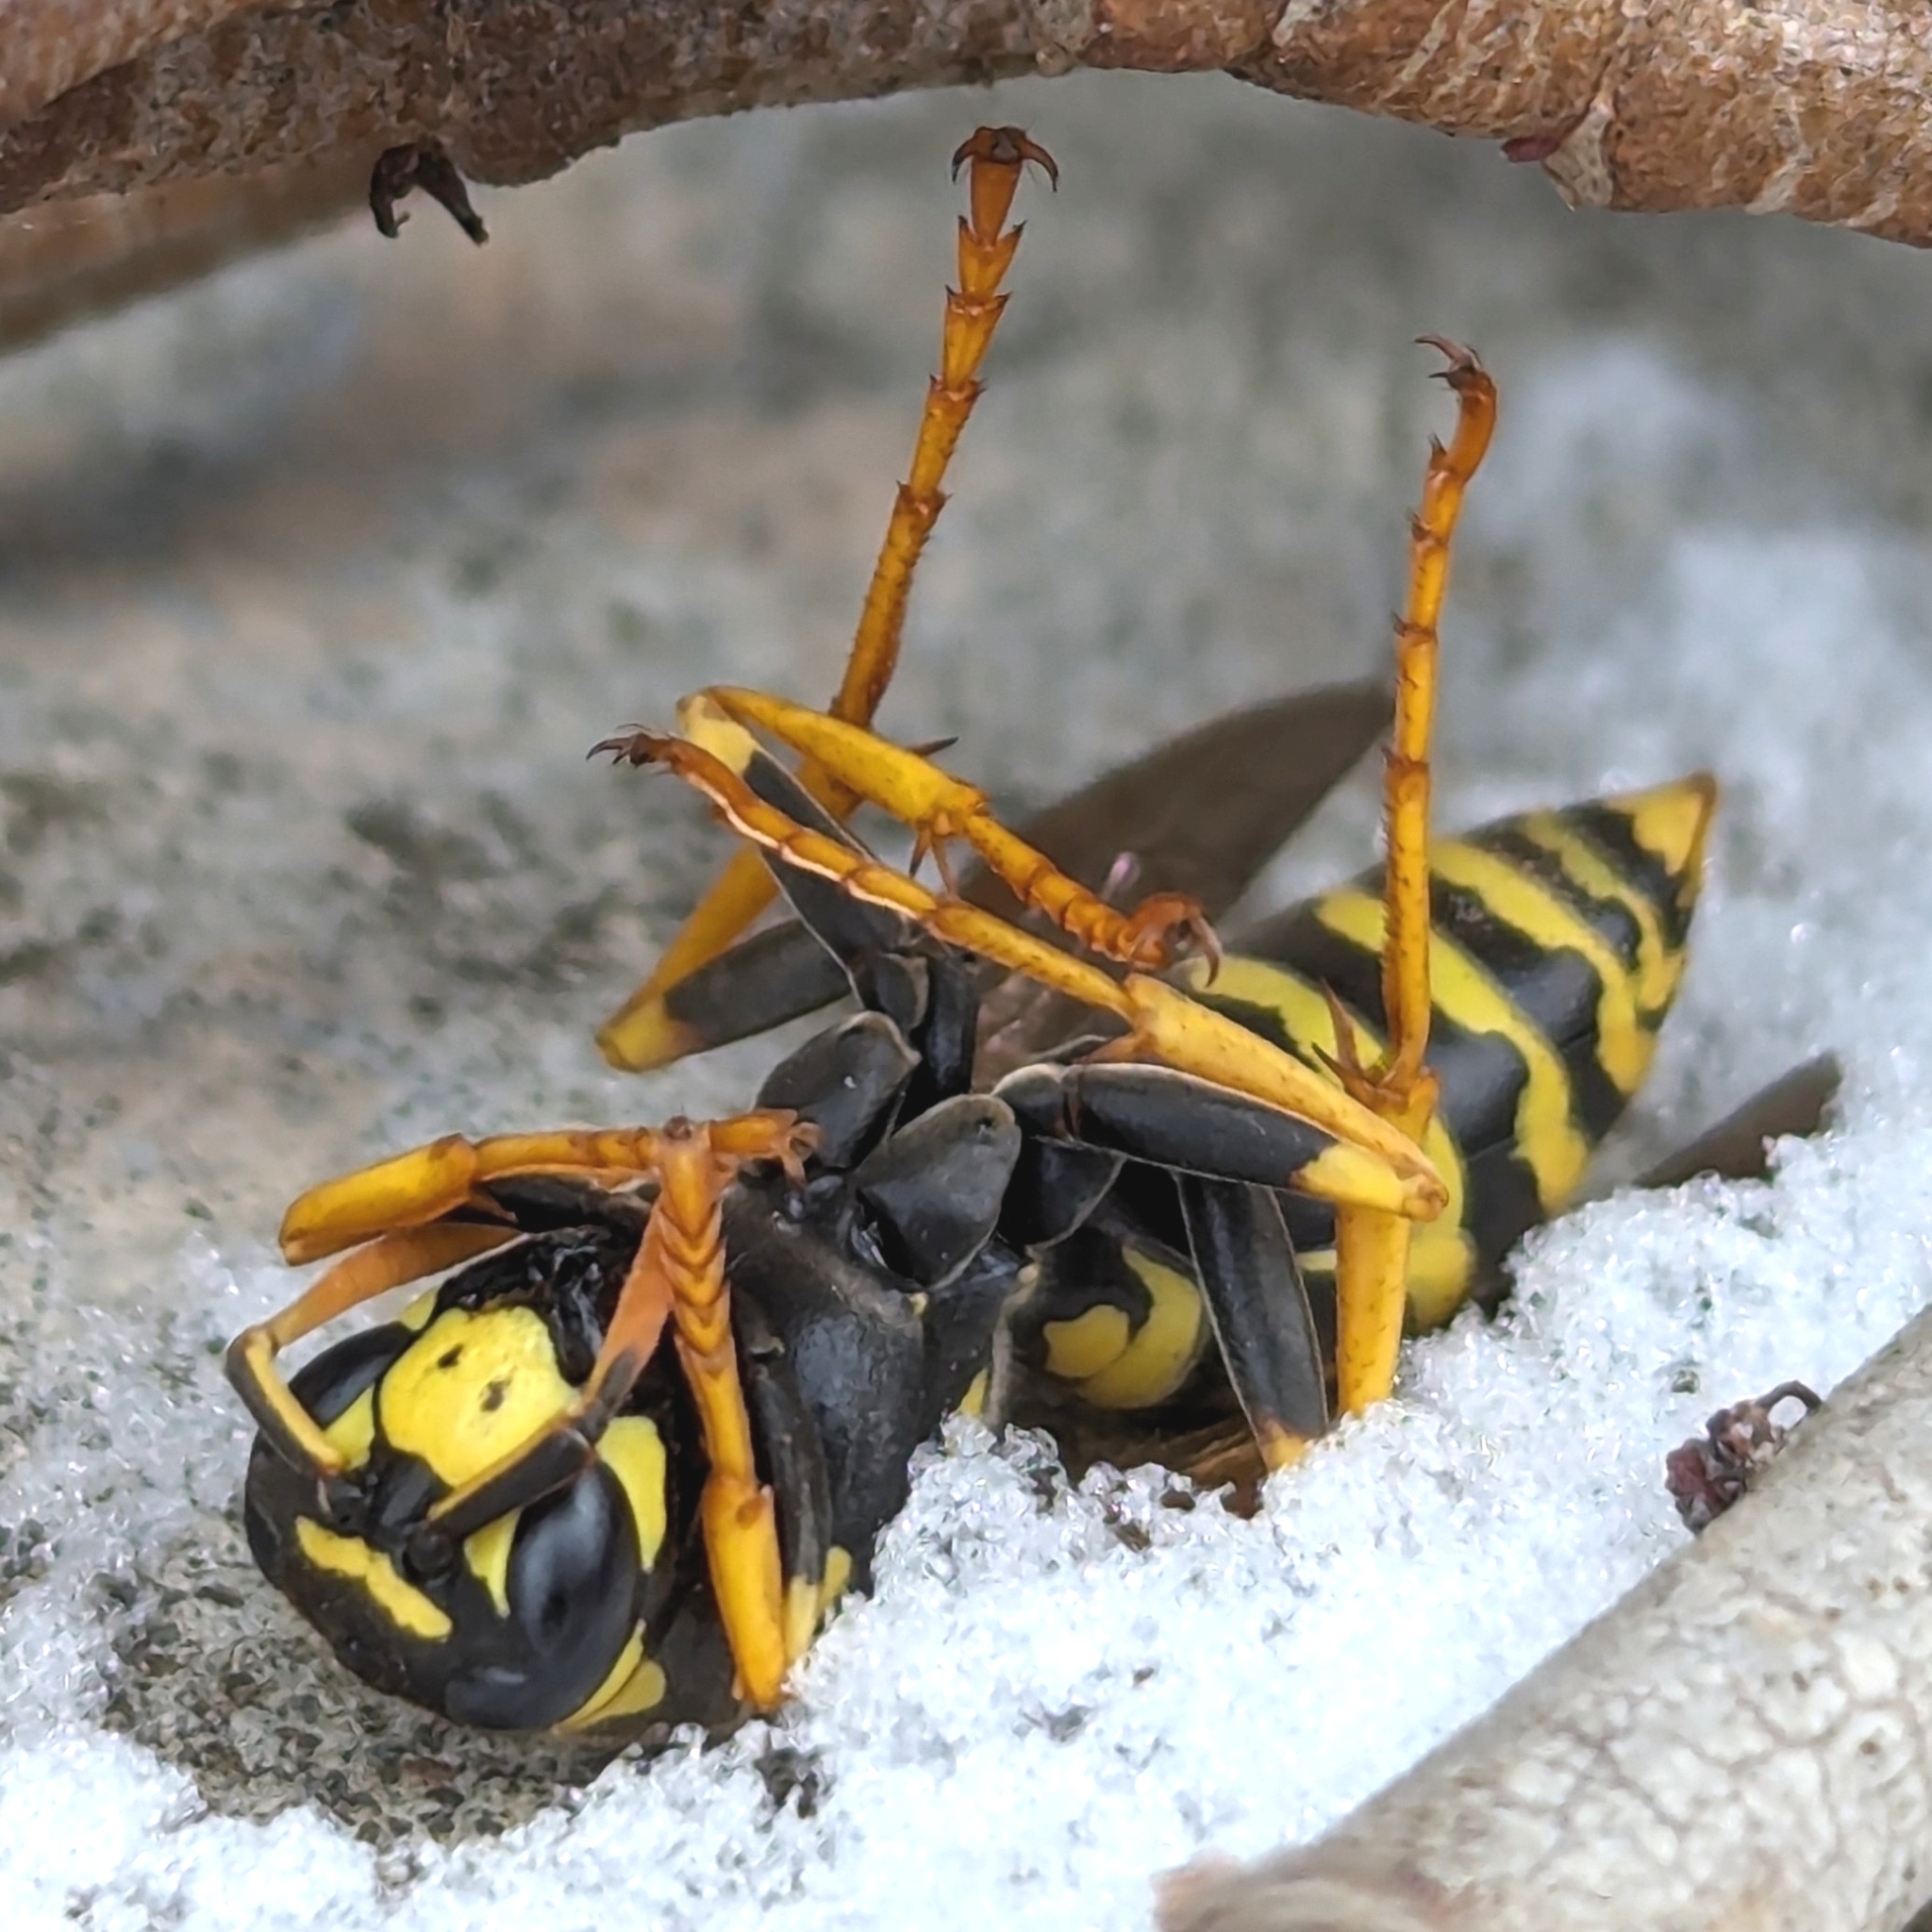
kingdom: Animalia
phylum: Arthropoda
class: Insecta
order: Hymenoptera
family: Eumenidae
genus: Polistes
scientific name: Polistes dominula
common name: Paper wasp
